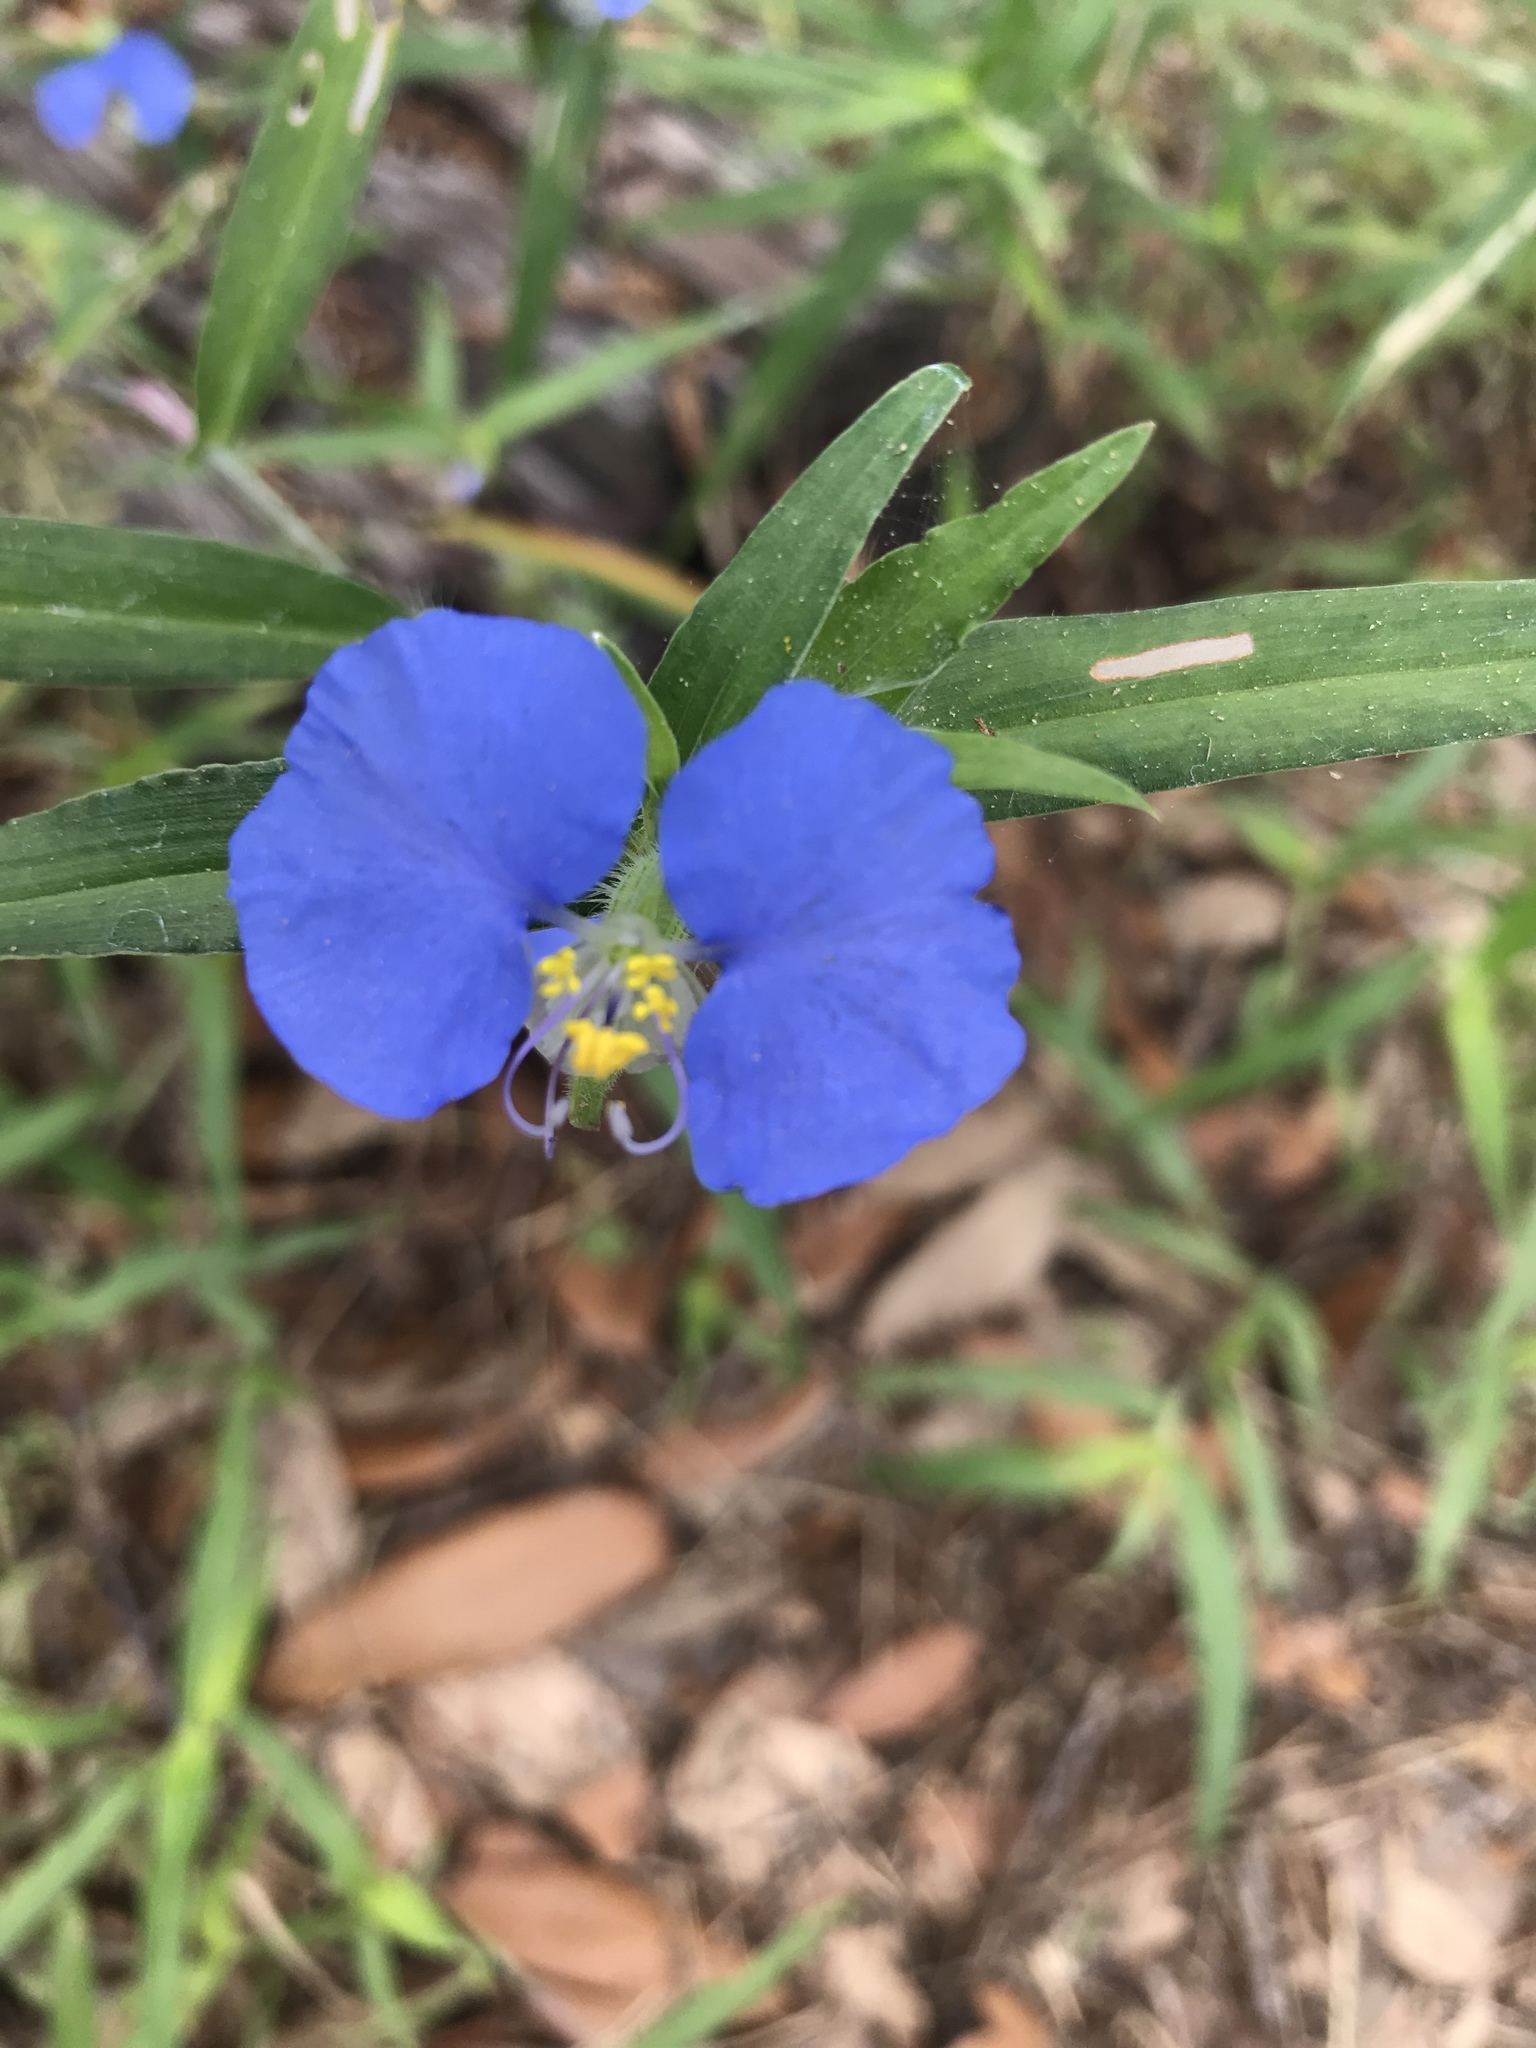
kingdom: Plantae
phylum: Tracheophyta
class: Liliopsida
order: Commelinales
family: Commelinaceae
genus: Commelina
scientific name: Commelina erecta
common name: Blousel blommetjie
